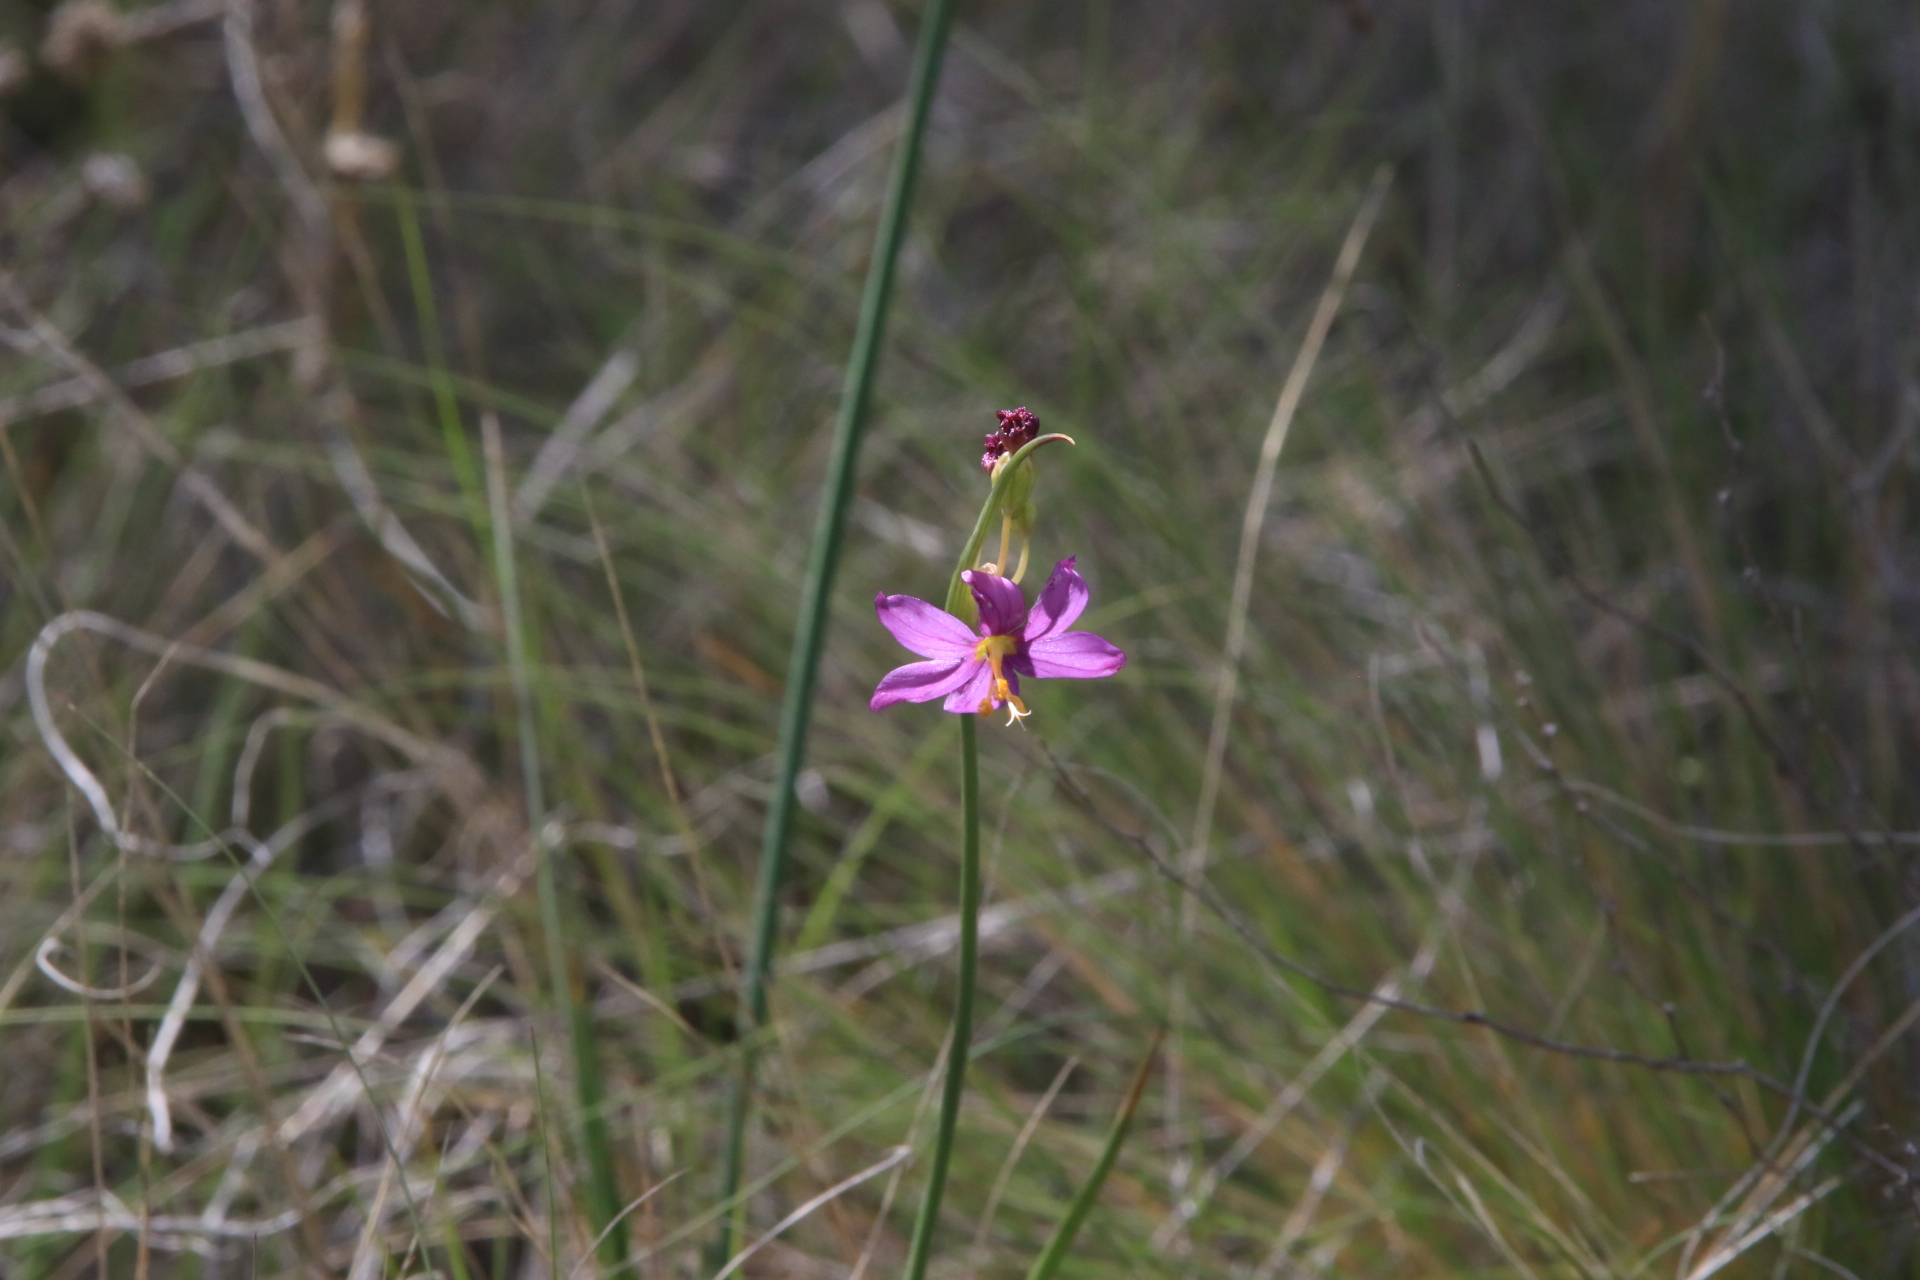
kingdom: Plantae
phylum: Tracheophyta
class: Liliopsida
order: Asparagales
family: Iridaceae
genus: Olsynium
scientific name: Olsynium douglasii
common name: Douglas' grasswidow
